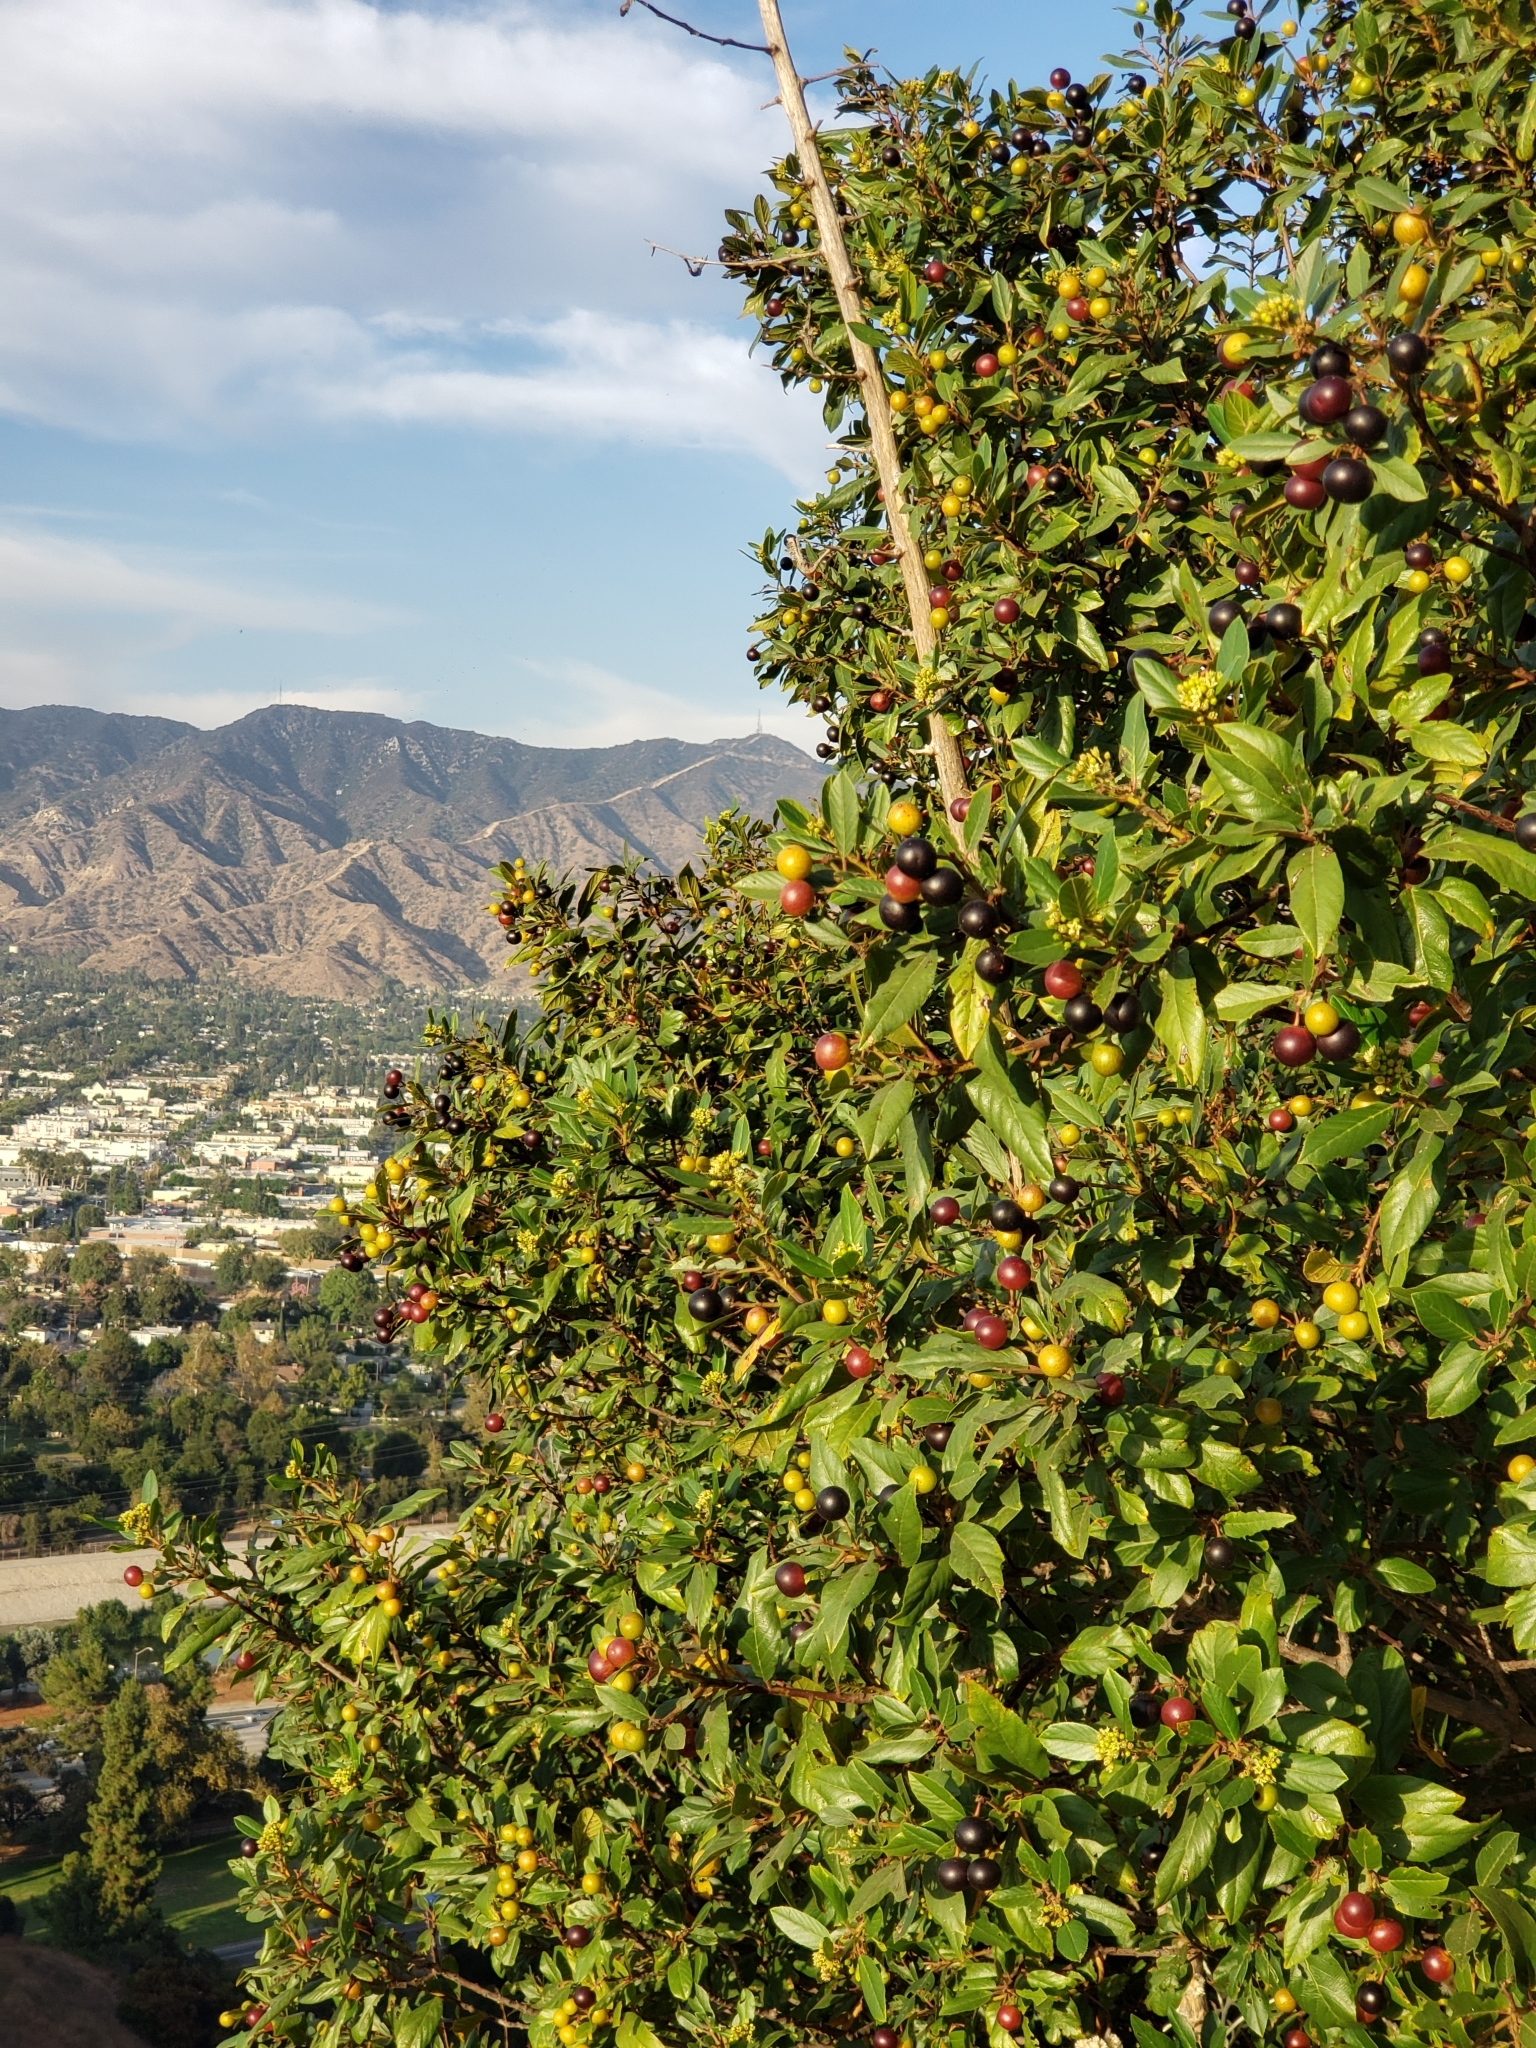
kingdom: Plantae
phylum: Tracheophyta
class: Magnoliopsida
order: Rosales
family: Rhamnaceae
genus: Frangula
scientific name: Frangula californica
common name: California buckthorn
